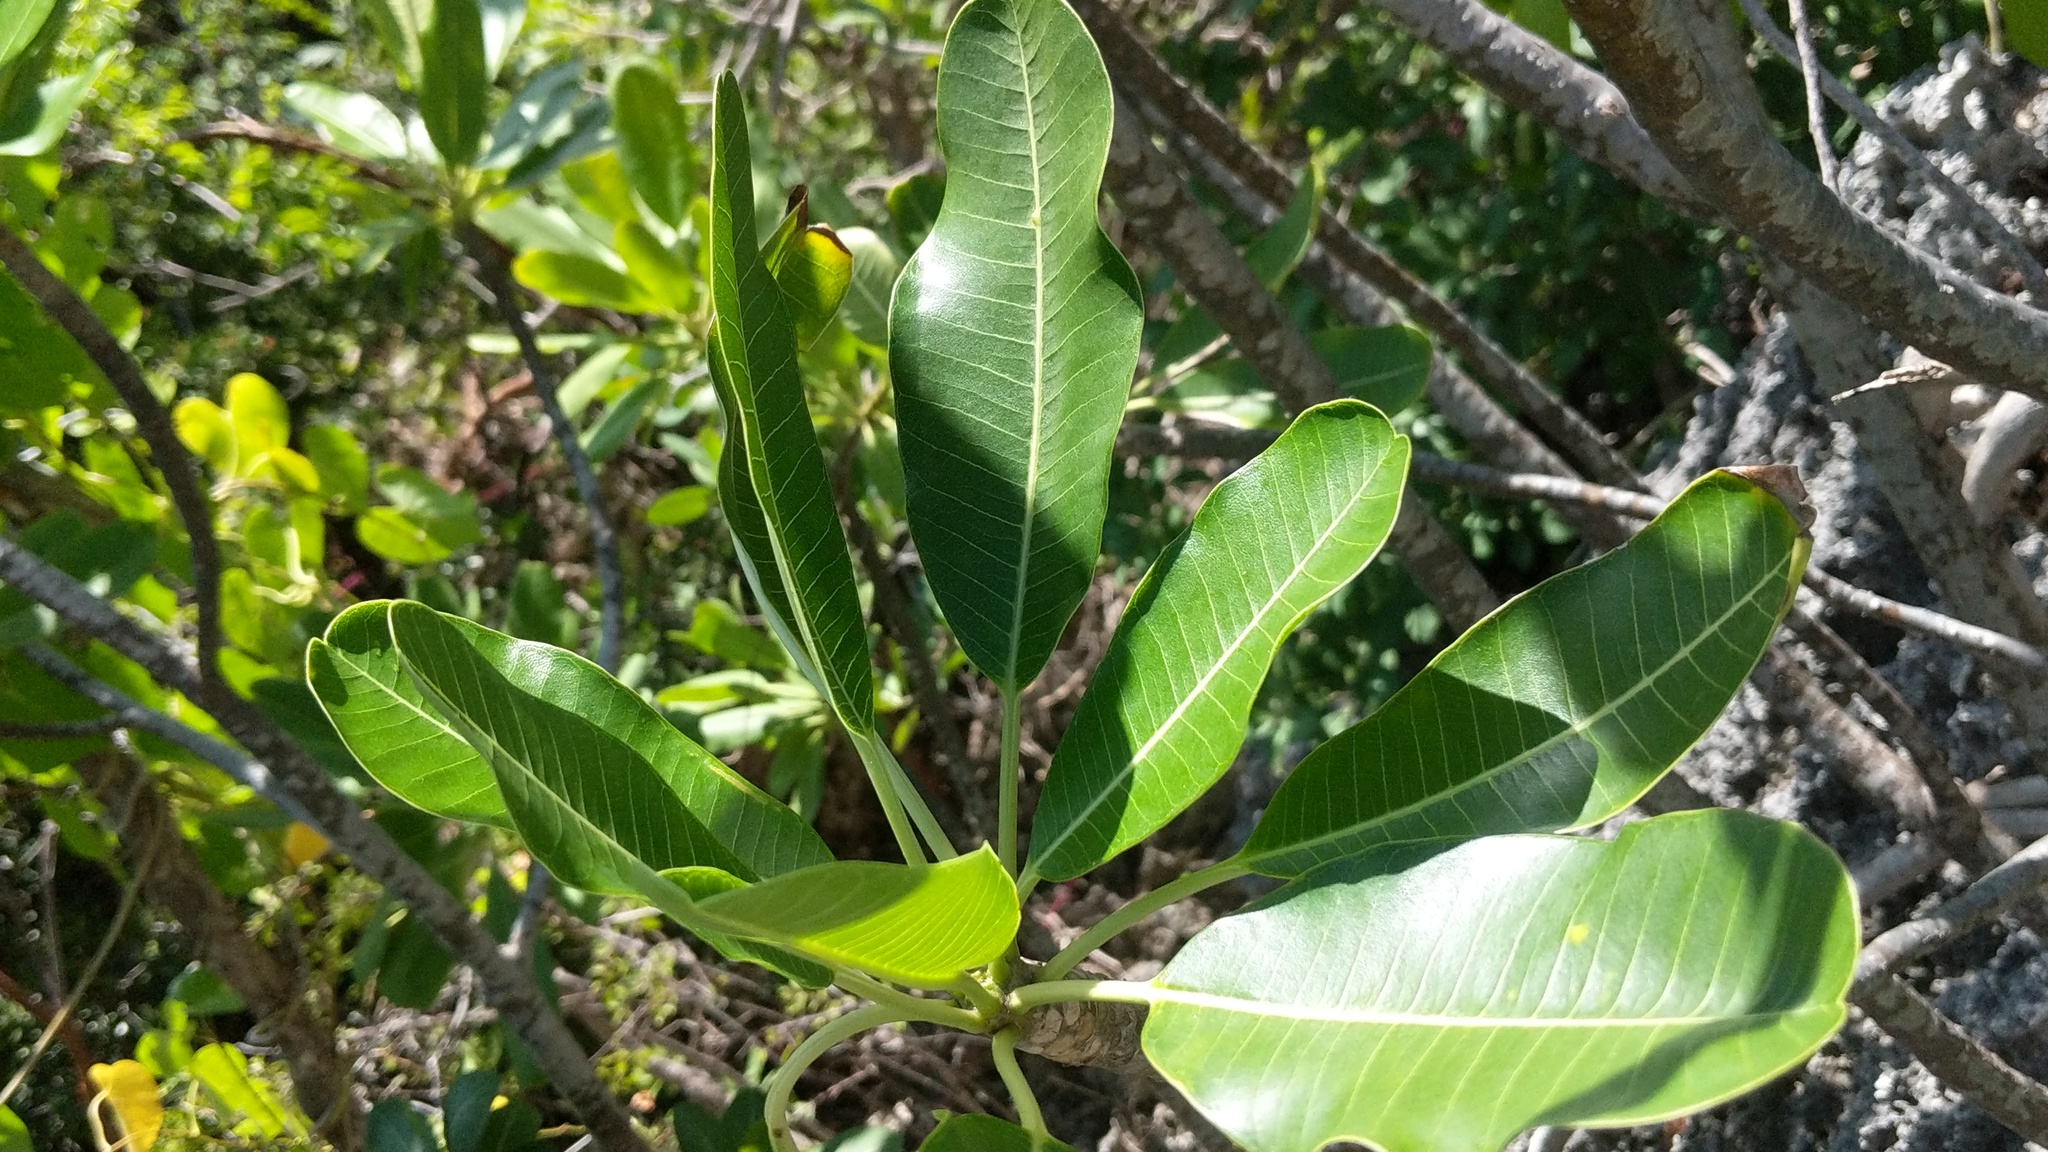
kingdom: Plantae
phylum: Tracheophyta
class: Magnoliopsida
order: Gentianales
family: Apocynaceae
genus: Plumeria
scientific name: Plumeria obtusa
